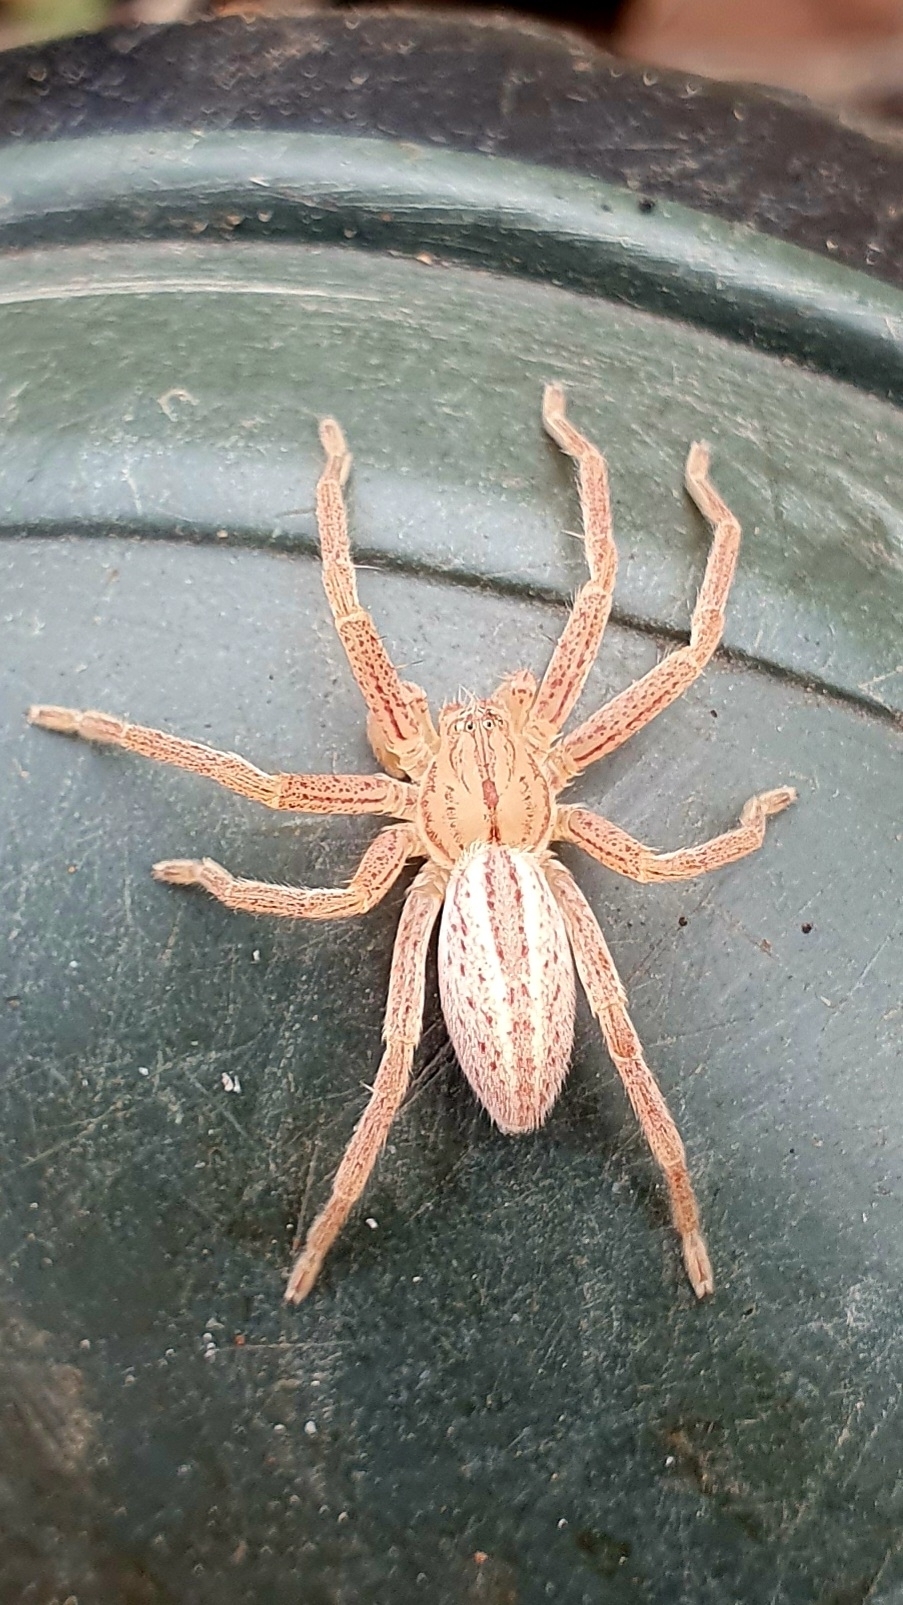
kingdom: Animalia
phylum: Arthropoda
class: Arachnida
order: Araneae
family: Sparassidae
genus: Micrommata
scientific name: Micrommata virescens
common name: Green spider
